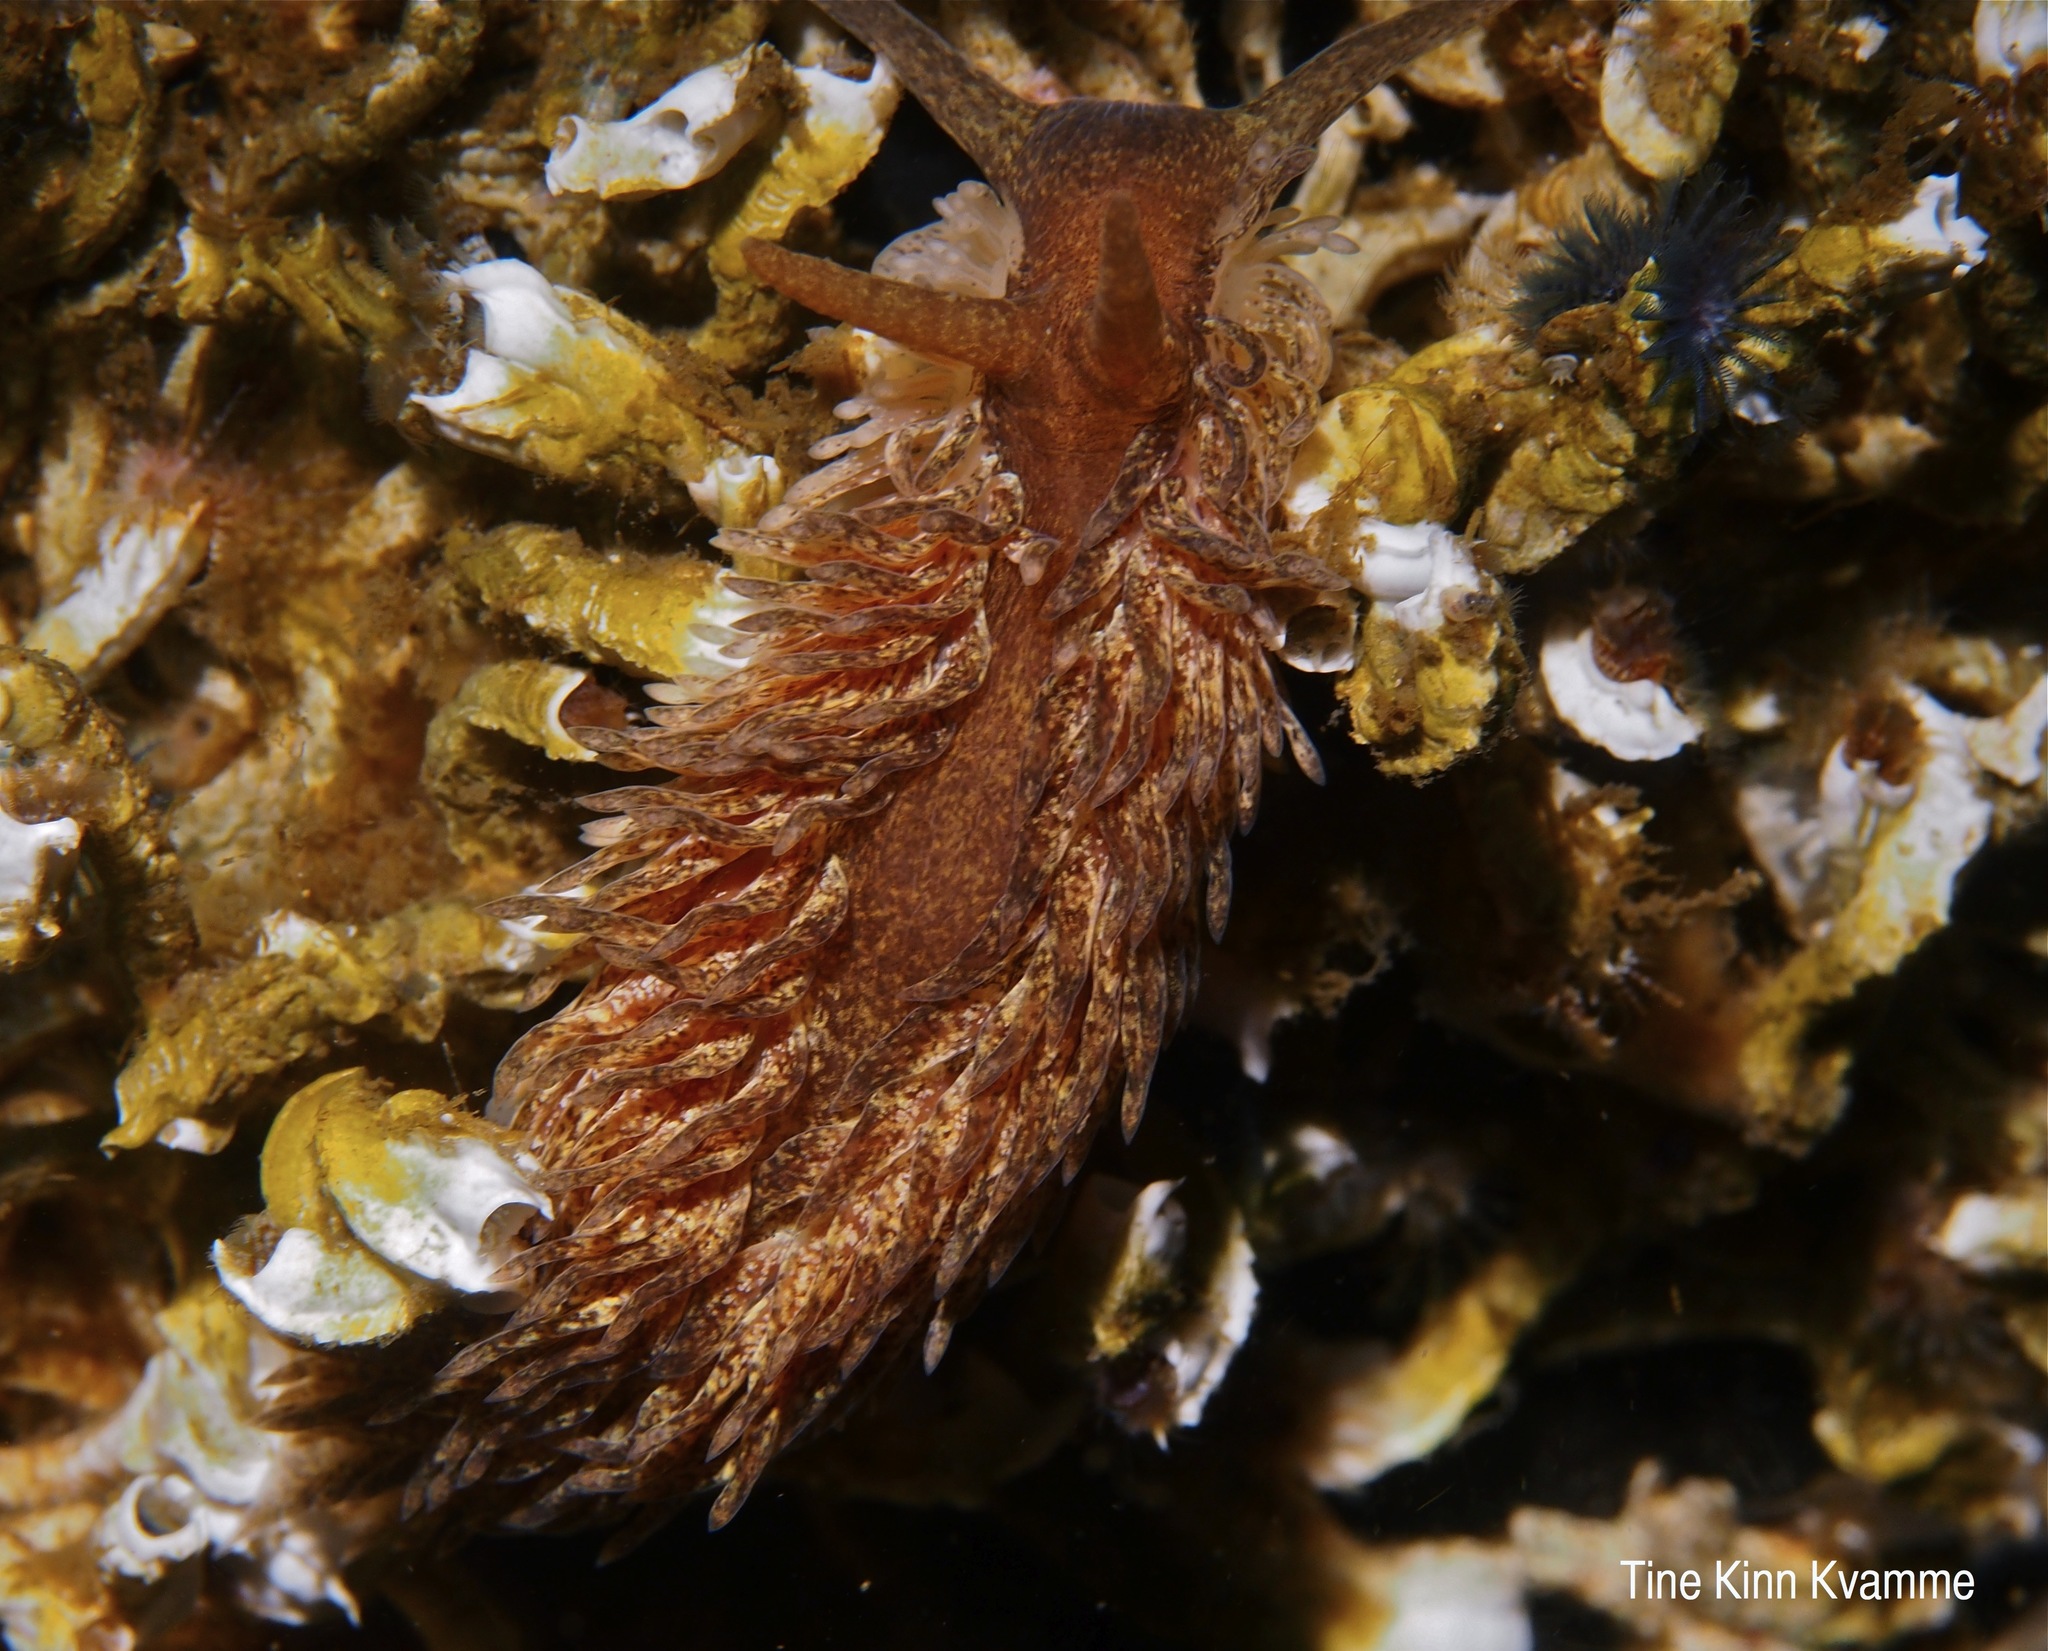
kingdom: Animalia
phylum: Mollusca
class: Gastropoda
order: Nudibranchia
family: Aeolidiidae
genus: Aeolidia
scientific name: Aeolidia papillosa
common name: Common grey sea slug
